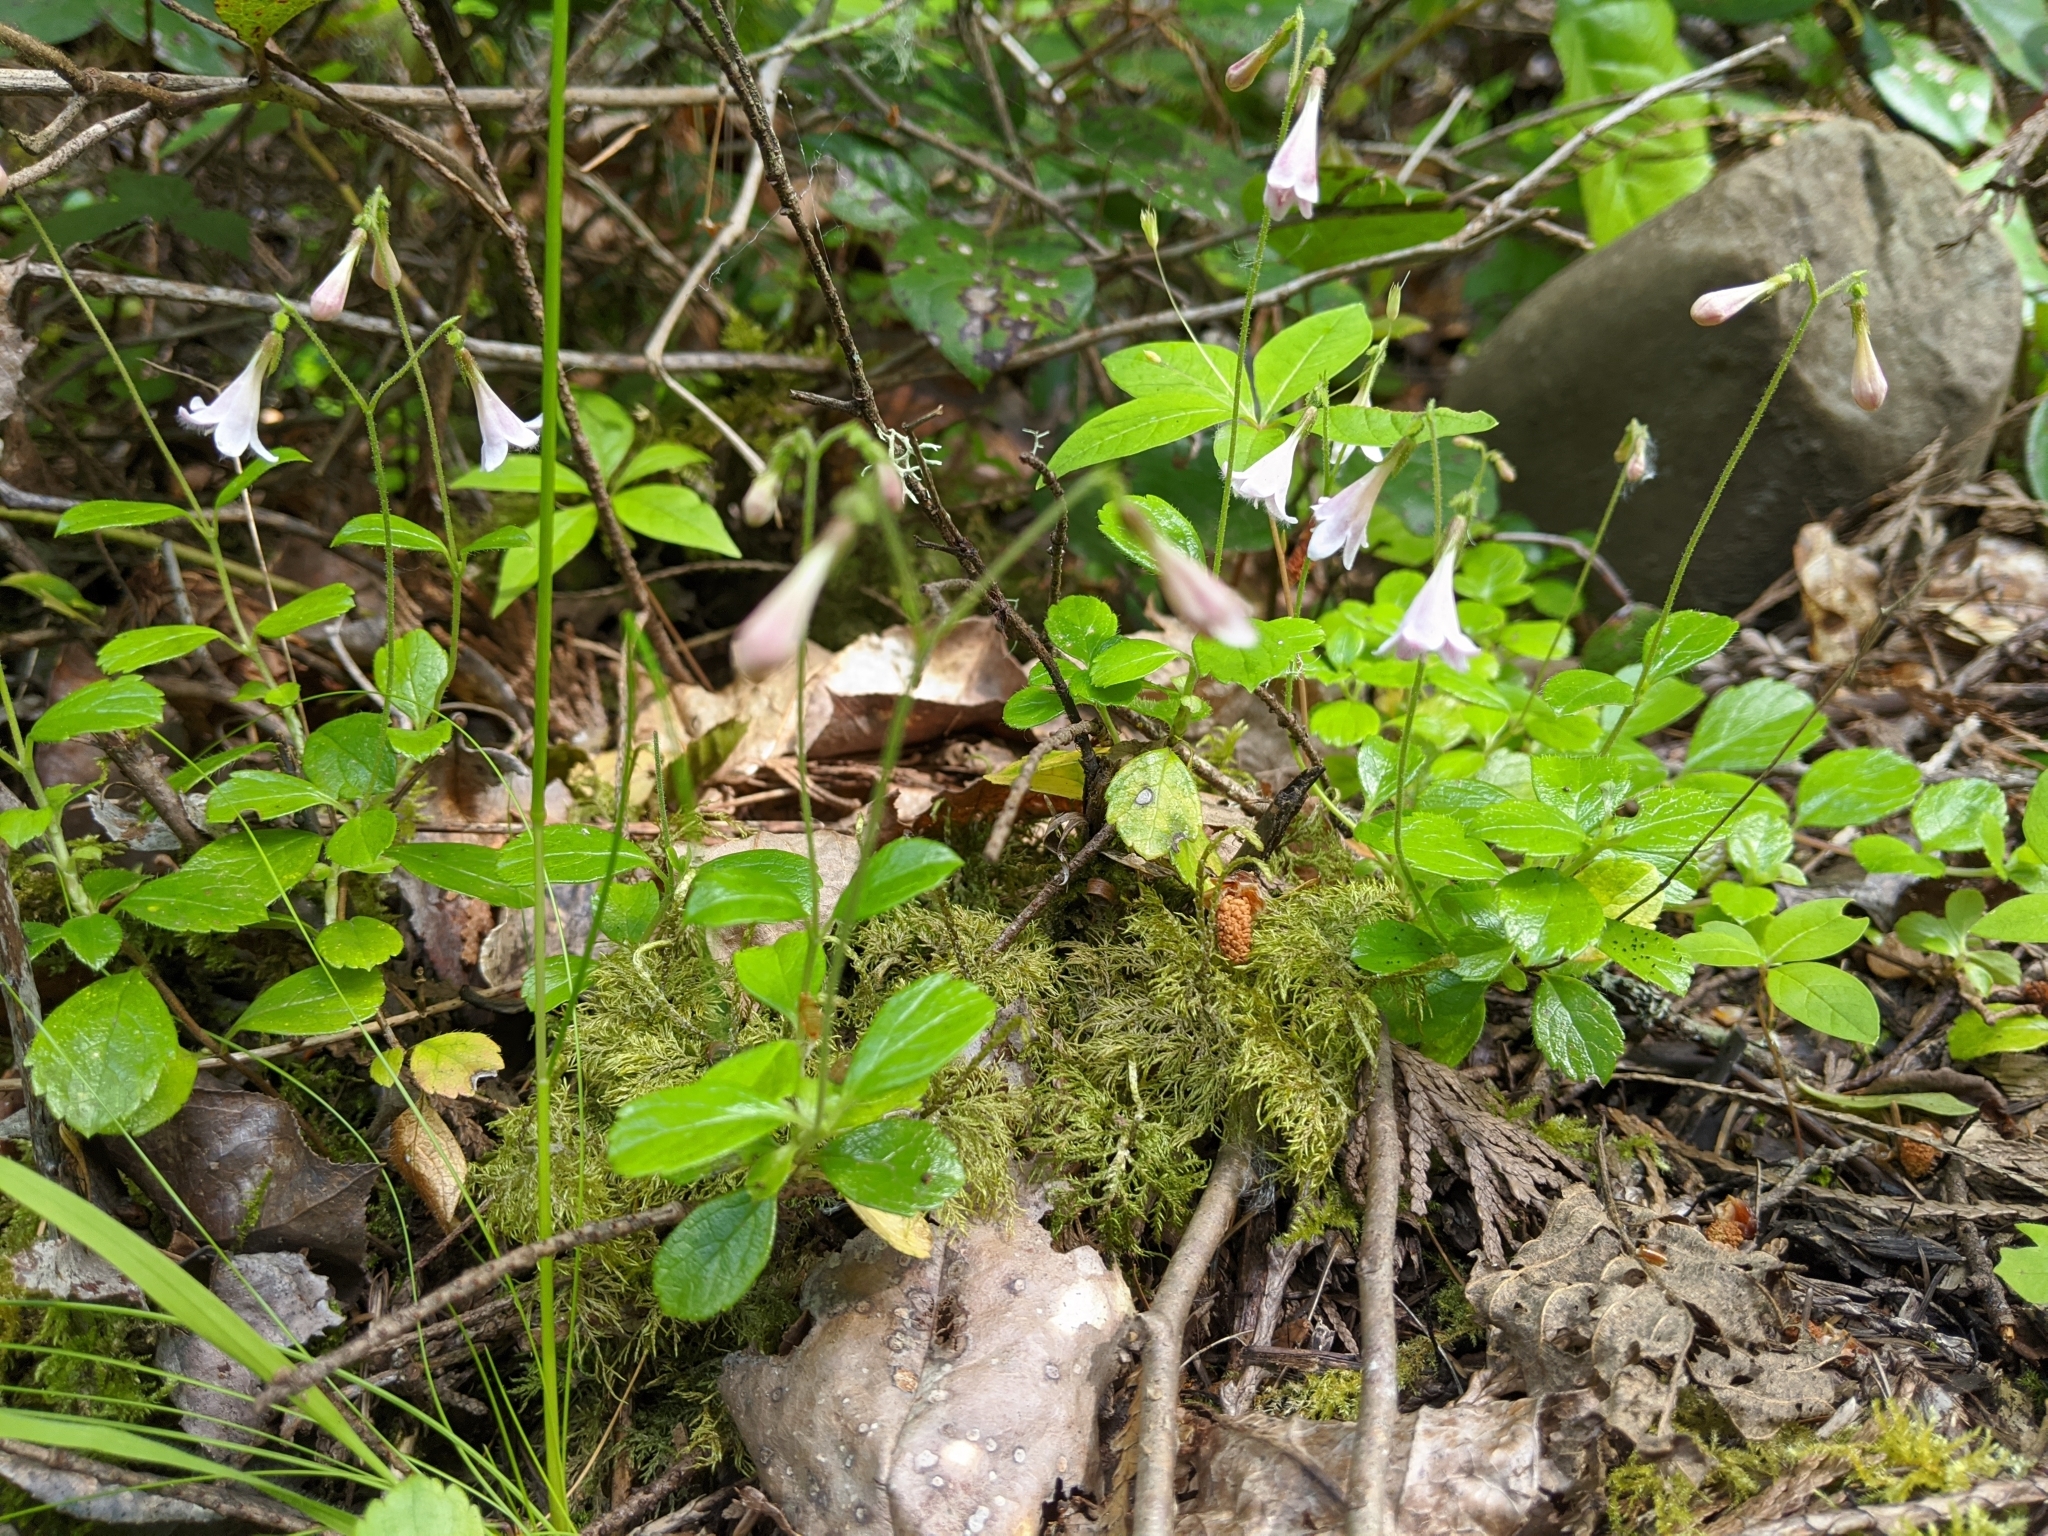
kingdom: Plantae
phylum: Tracheophyta
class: Magnoliopsida
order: Dipsacales
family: Caprifoliaceae
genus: Linnaea
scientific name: Linnaea borealis
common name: Twinflower
